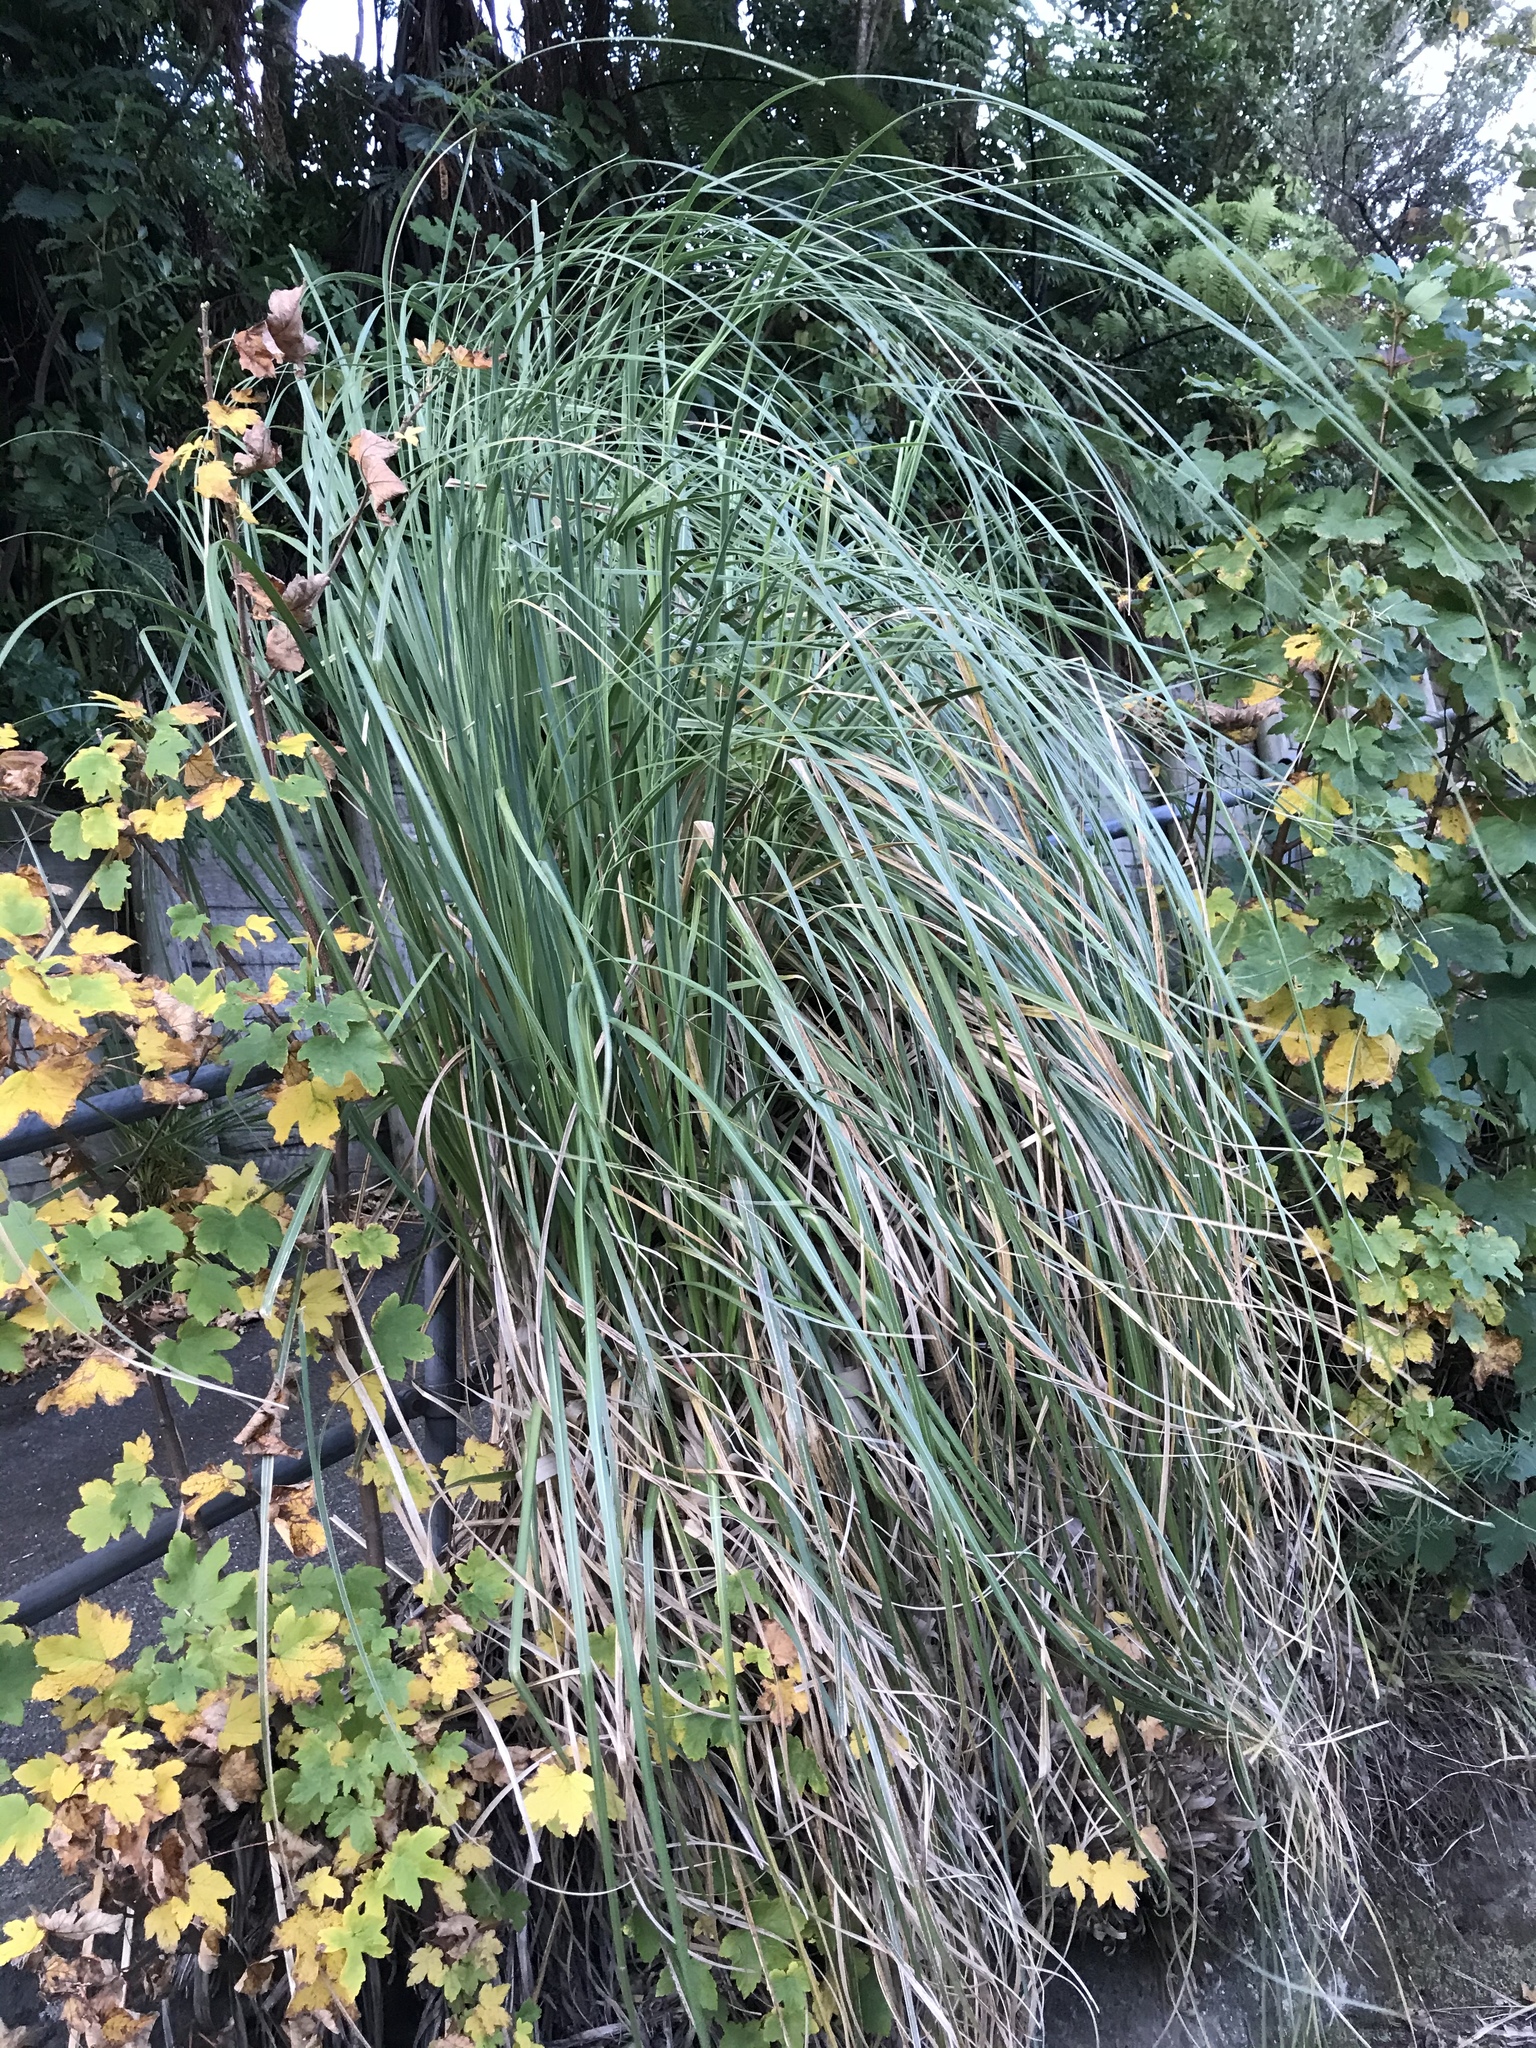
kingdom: Plantae
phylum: Tracheophyta
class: Liliopsida
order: Poales
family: Poaceae
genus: Cortaderia
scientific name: Cortaderia selloana
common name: Uruguayan pampas grass
